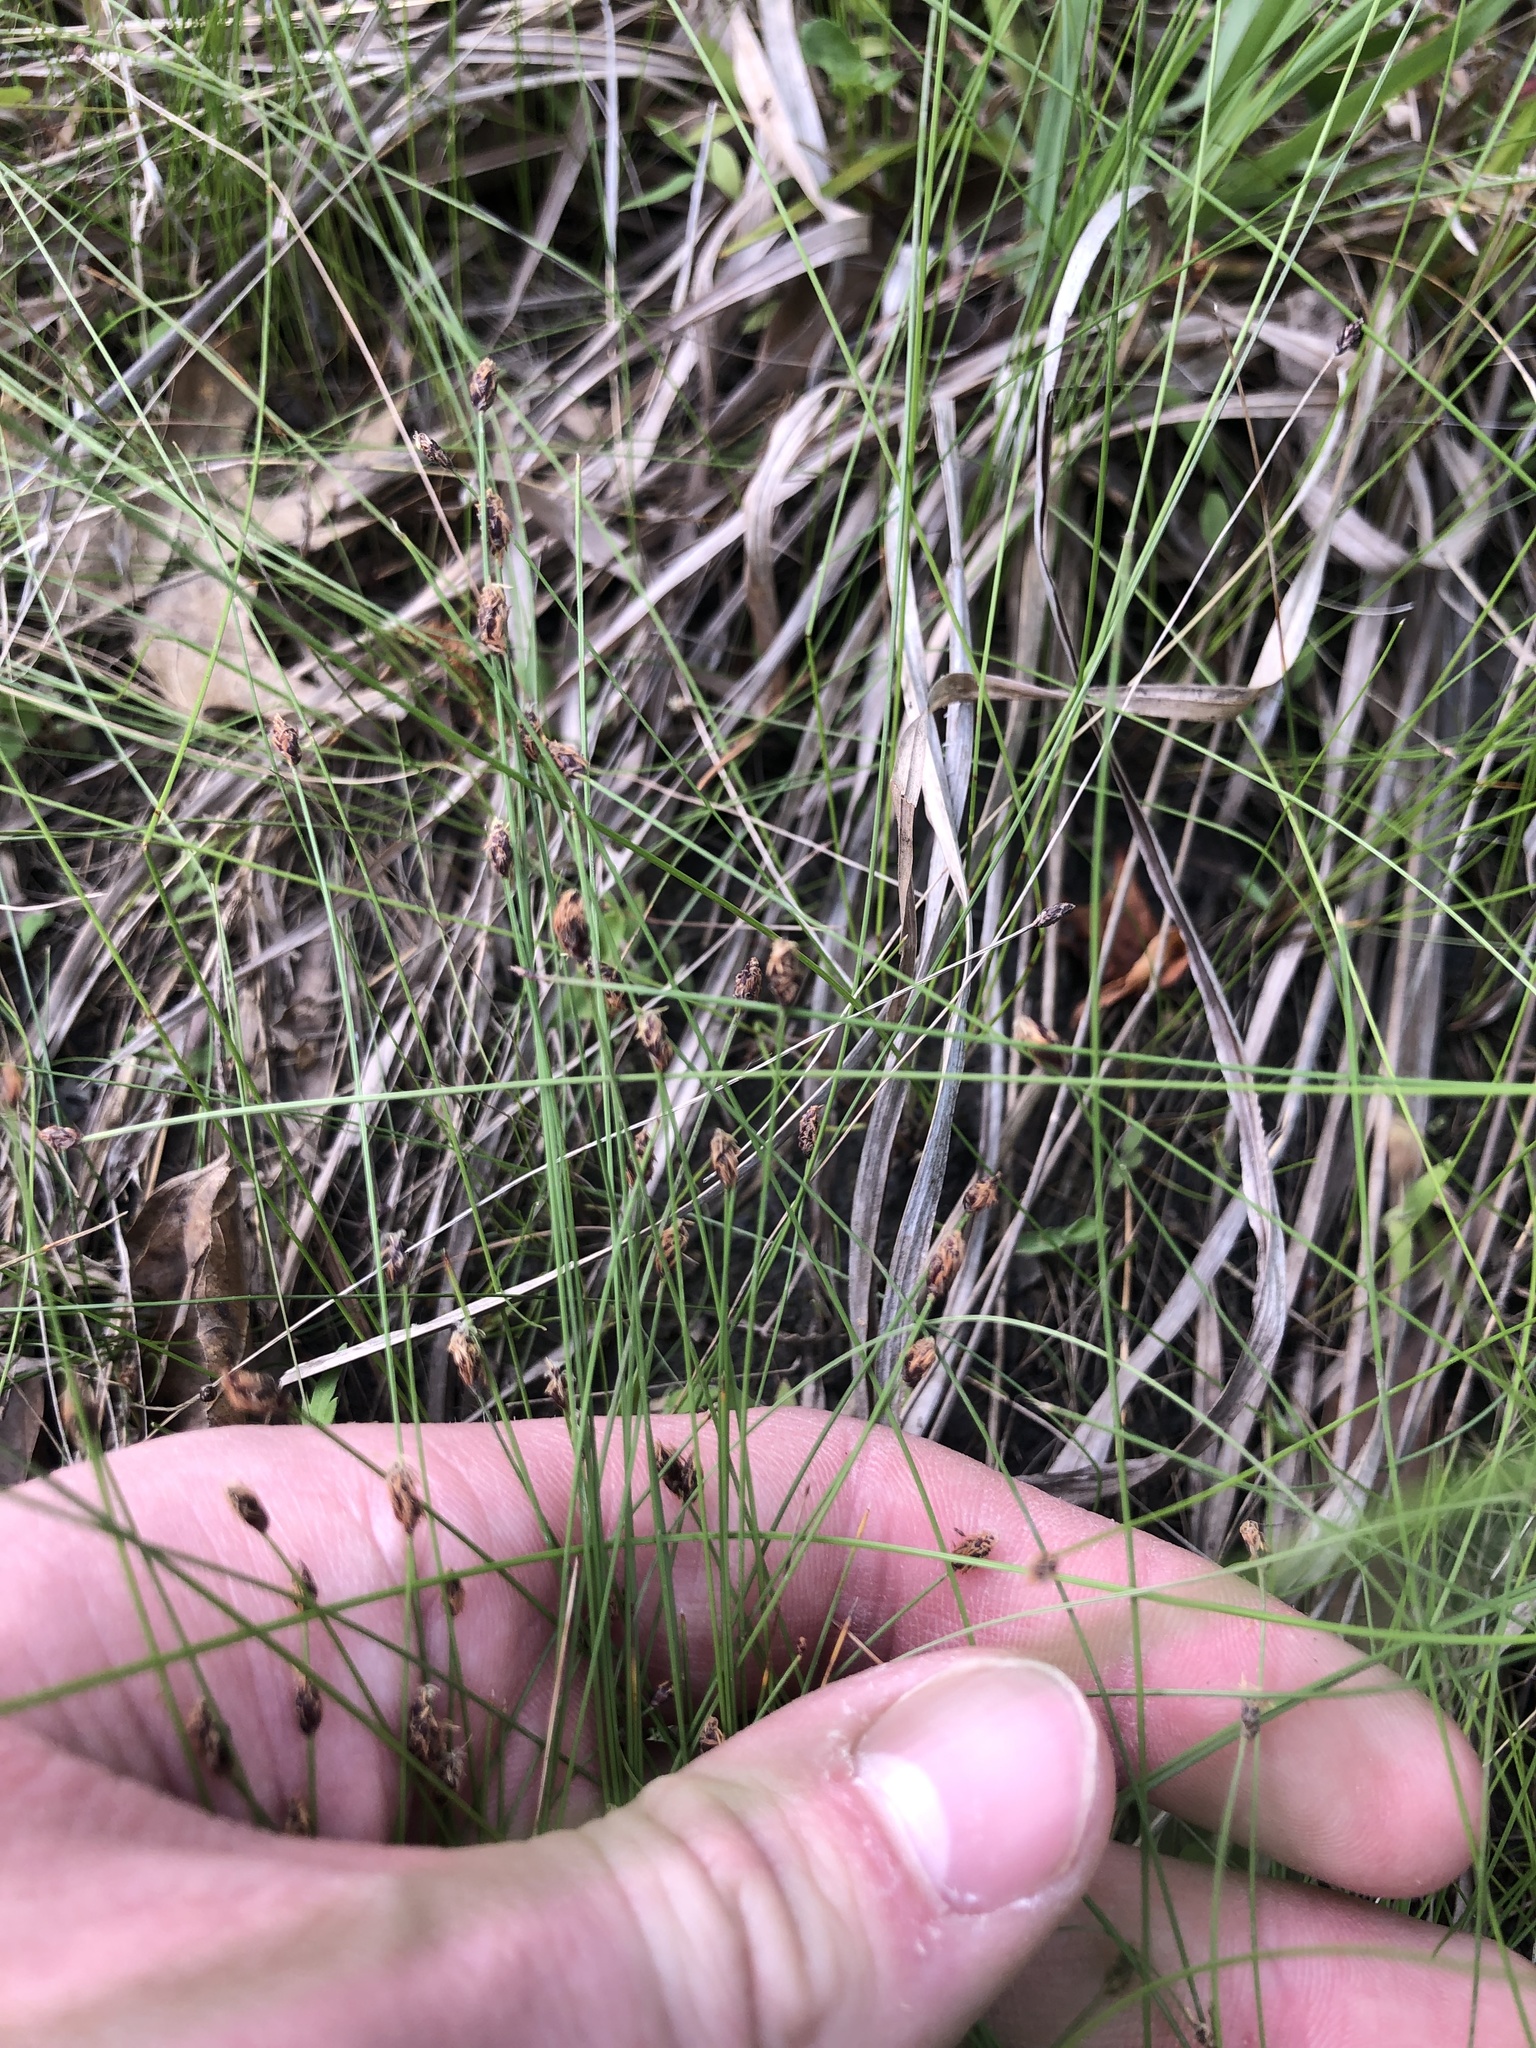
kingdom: Plantae
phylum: Tracheophyta
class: Liliopsida
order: Poales
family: Cyperaceae
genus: Eleocharis
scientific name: Eleocharis tenuis
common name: Dog's hair
